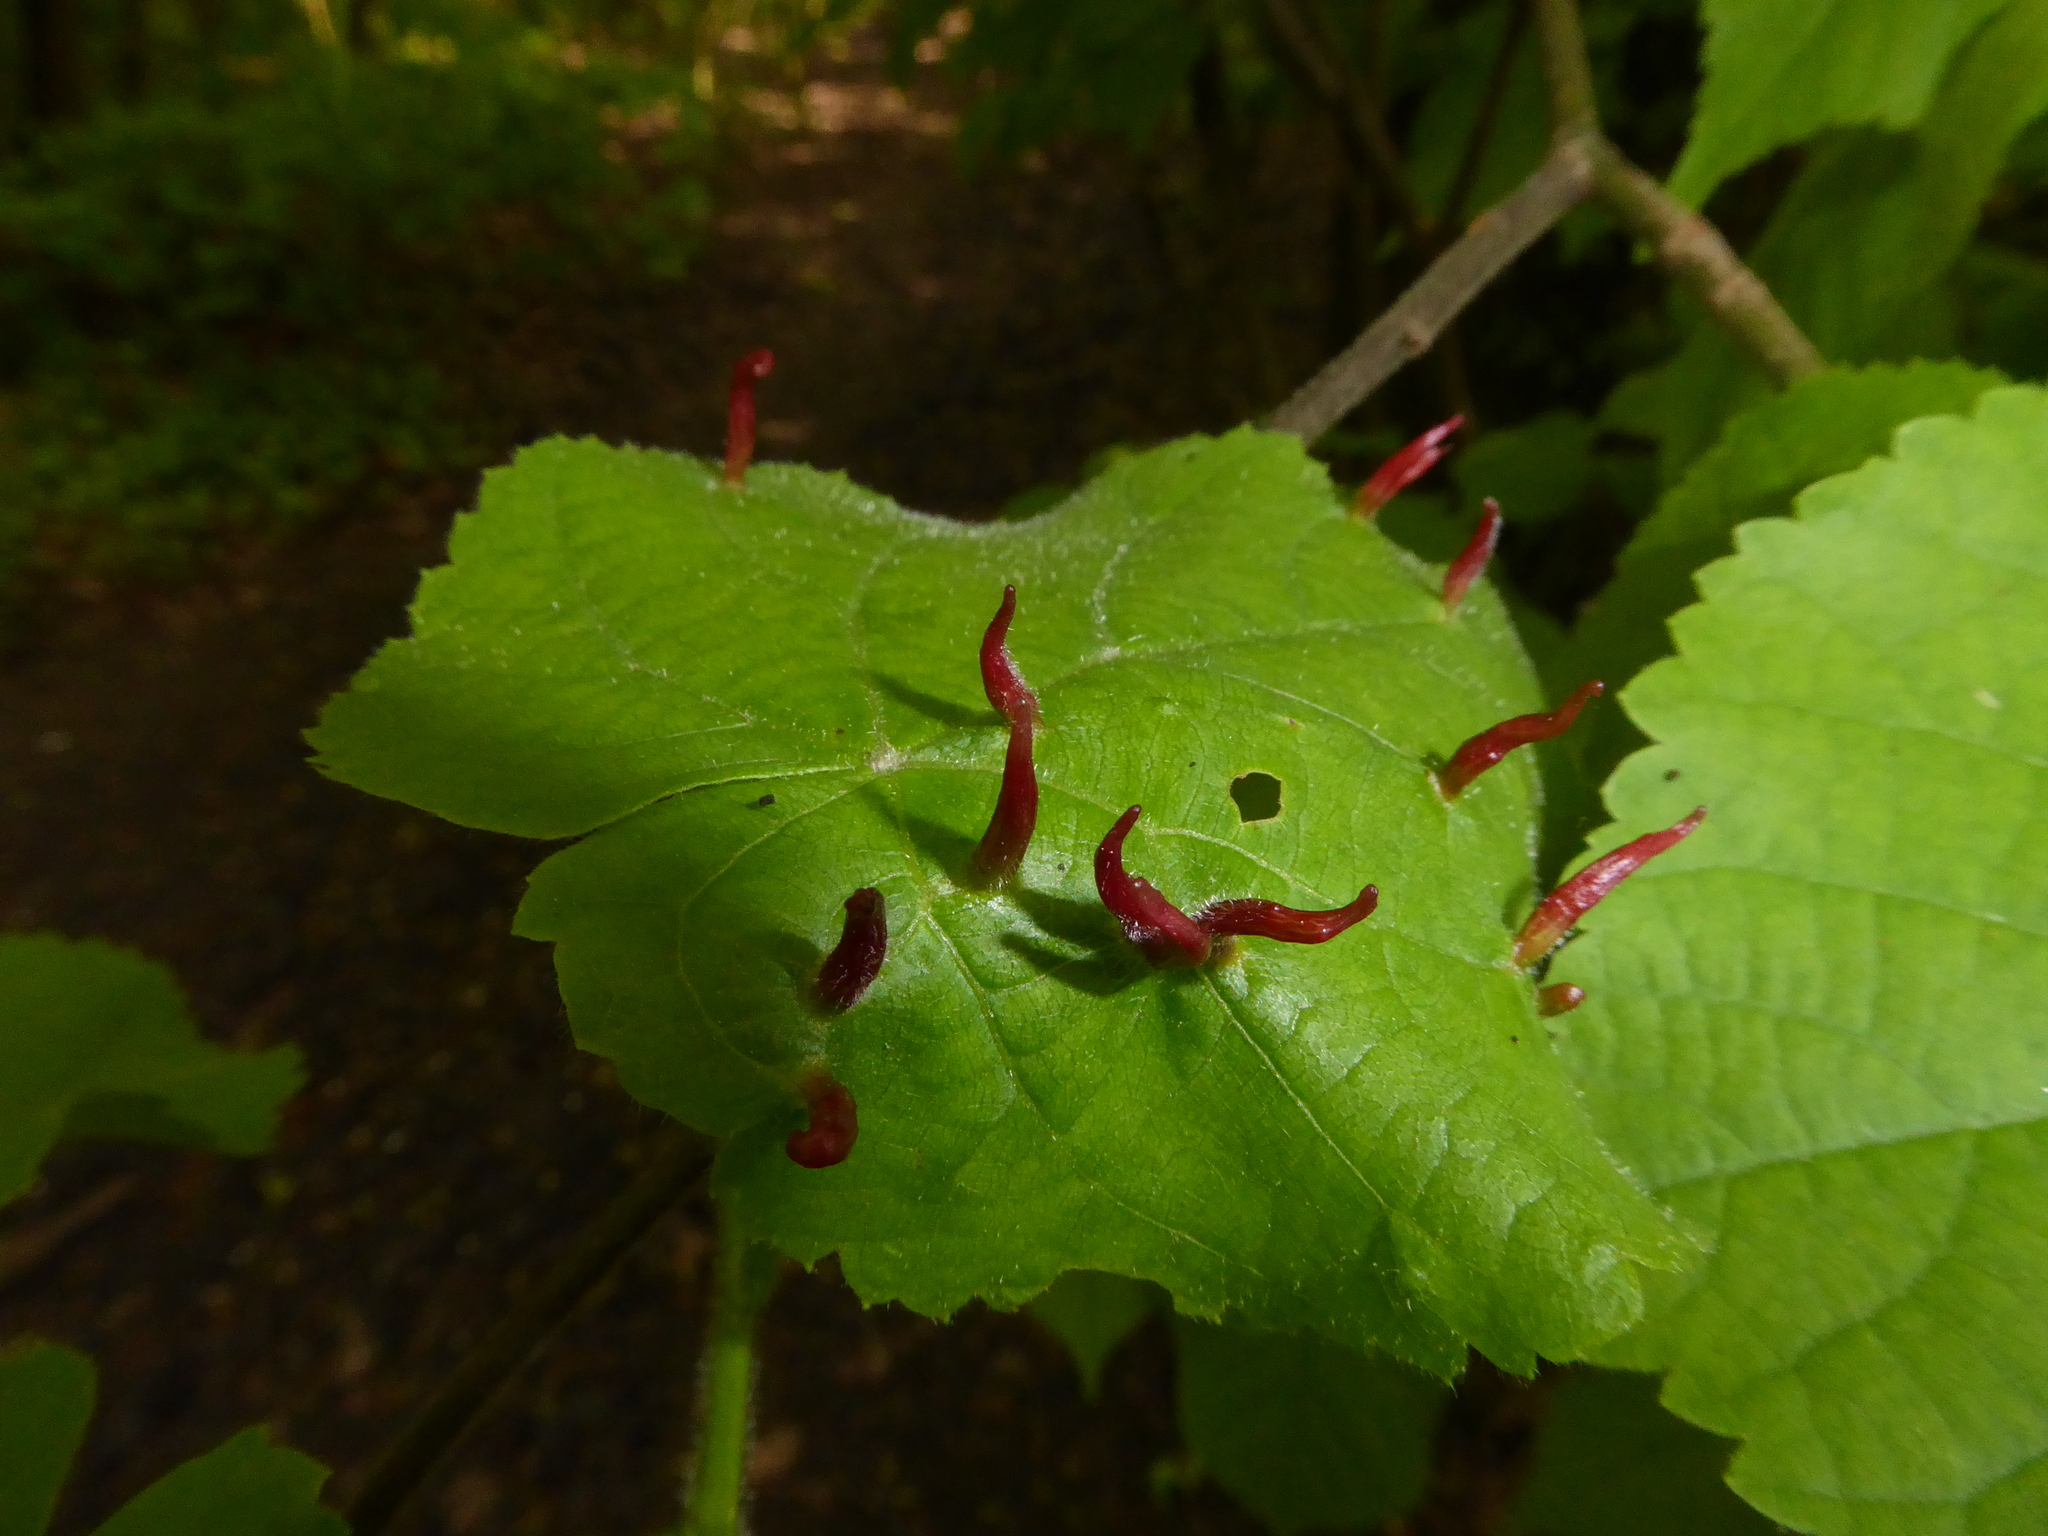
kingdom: Animalia
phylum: Arthropoda
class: Arachnida
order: Trombidiformes
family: Eriophyidae
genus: Eriophyes
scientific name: Eriophyes tiliae
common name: Red nail gall mite
